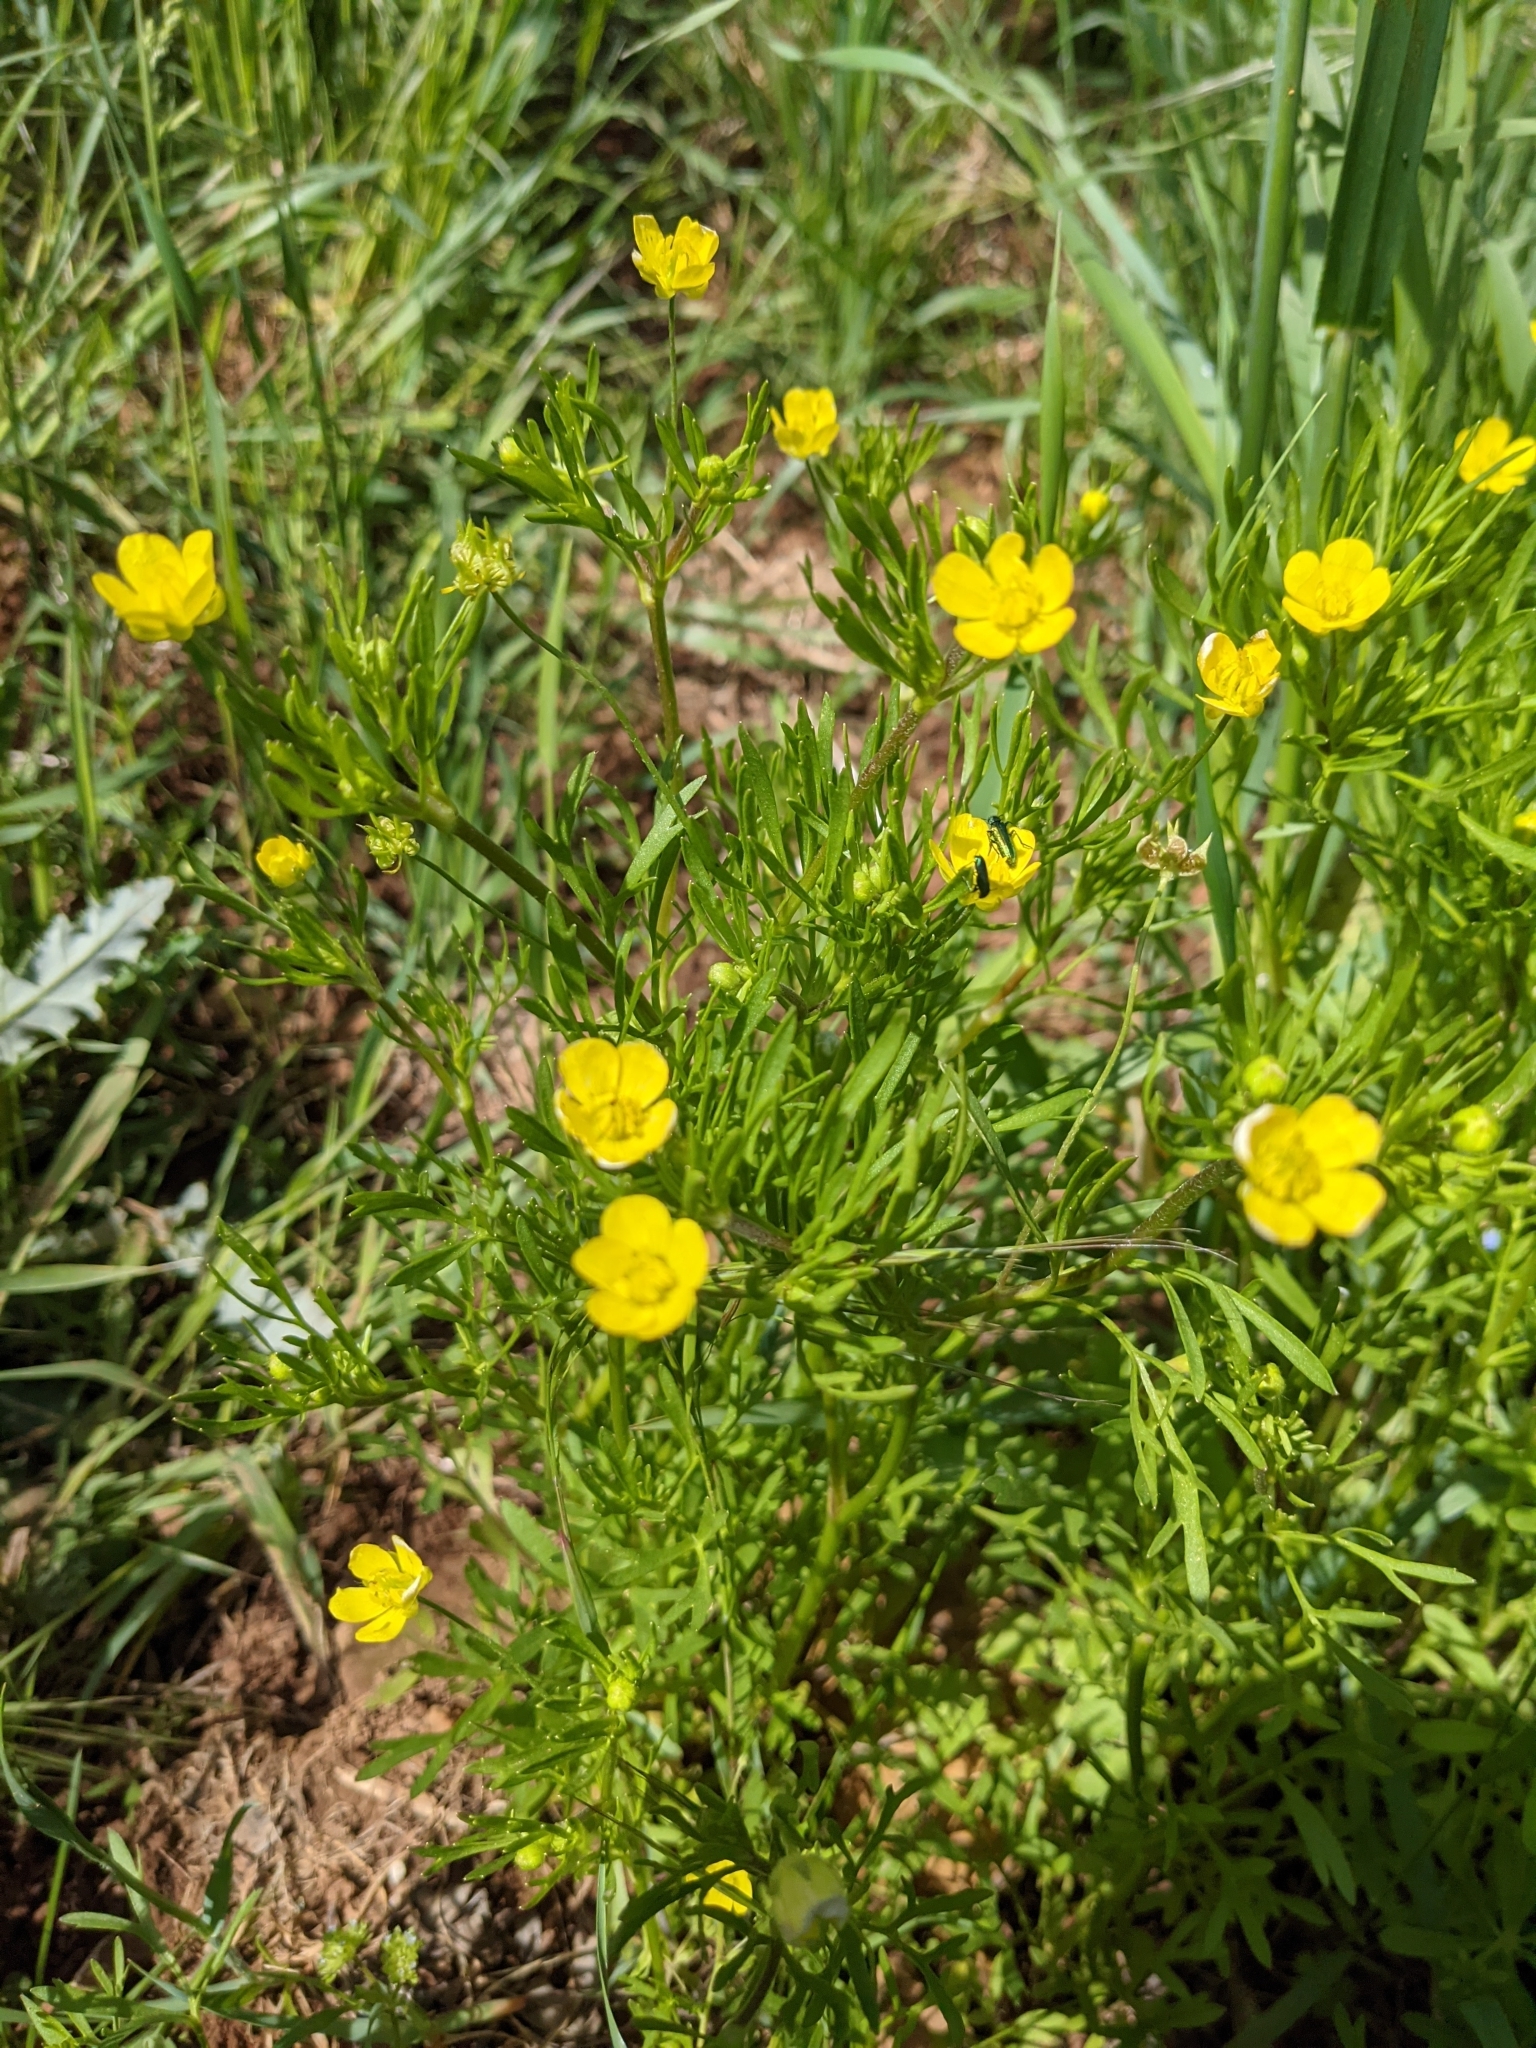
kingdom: Plantae
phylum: Tracheophyta
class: Magnoliopsida
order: Ranunculales
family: Ranunculaceae
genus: Ranunculus
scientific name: Ranunculus arvensis
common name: Corn buttercup
